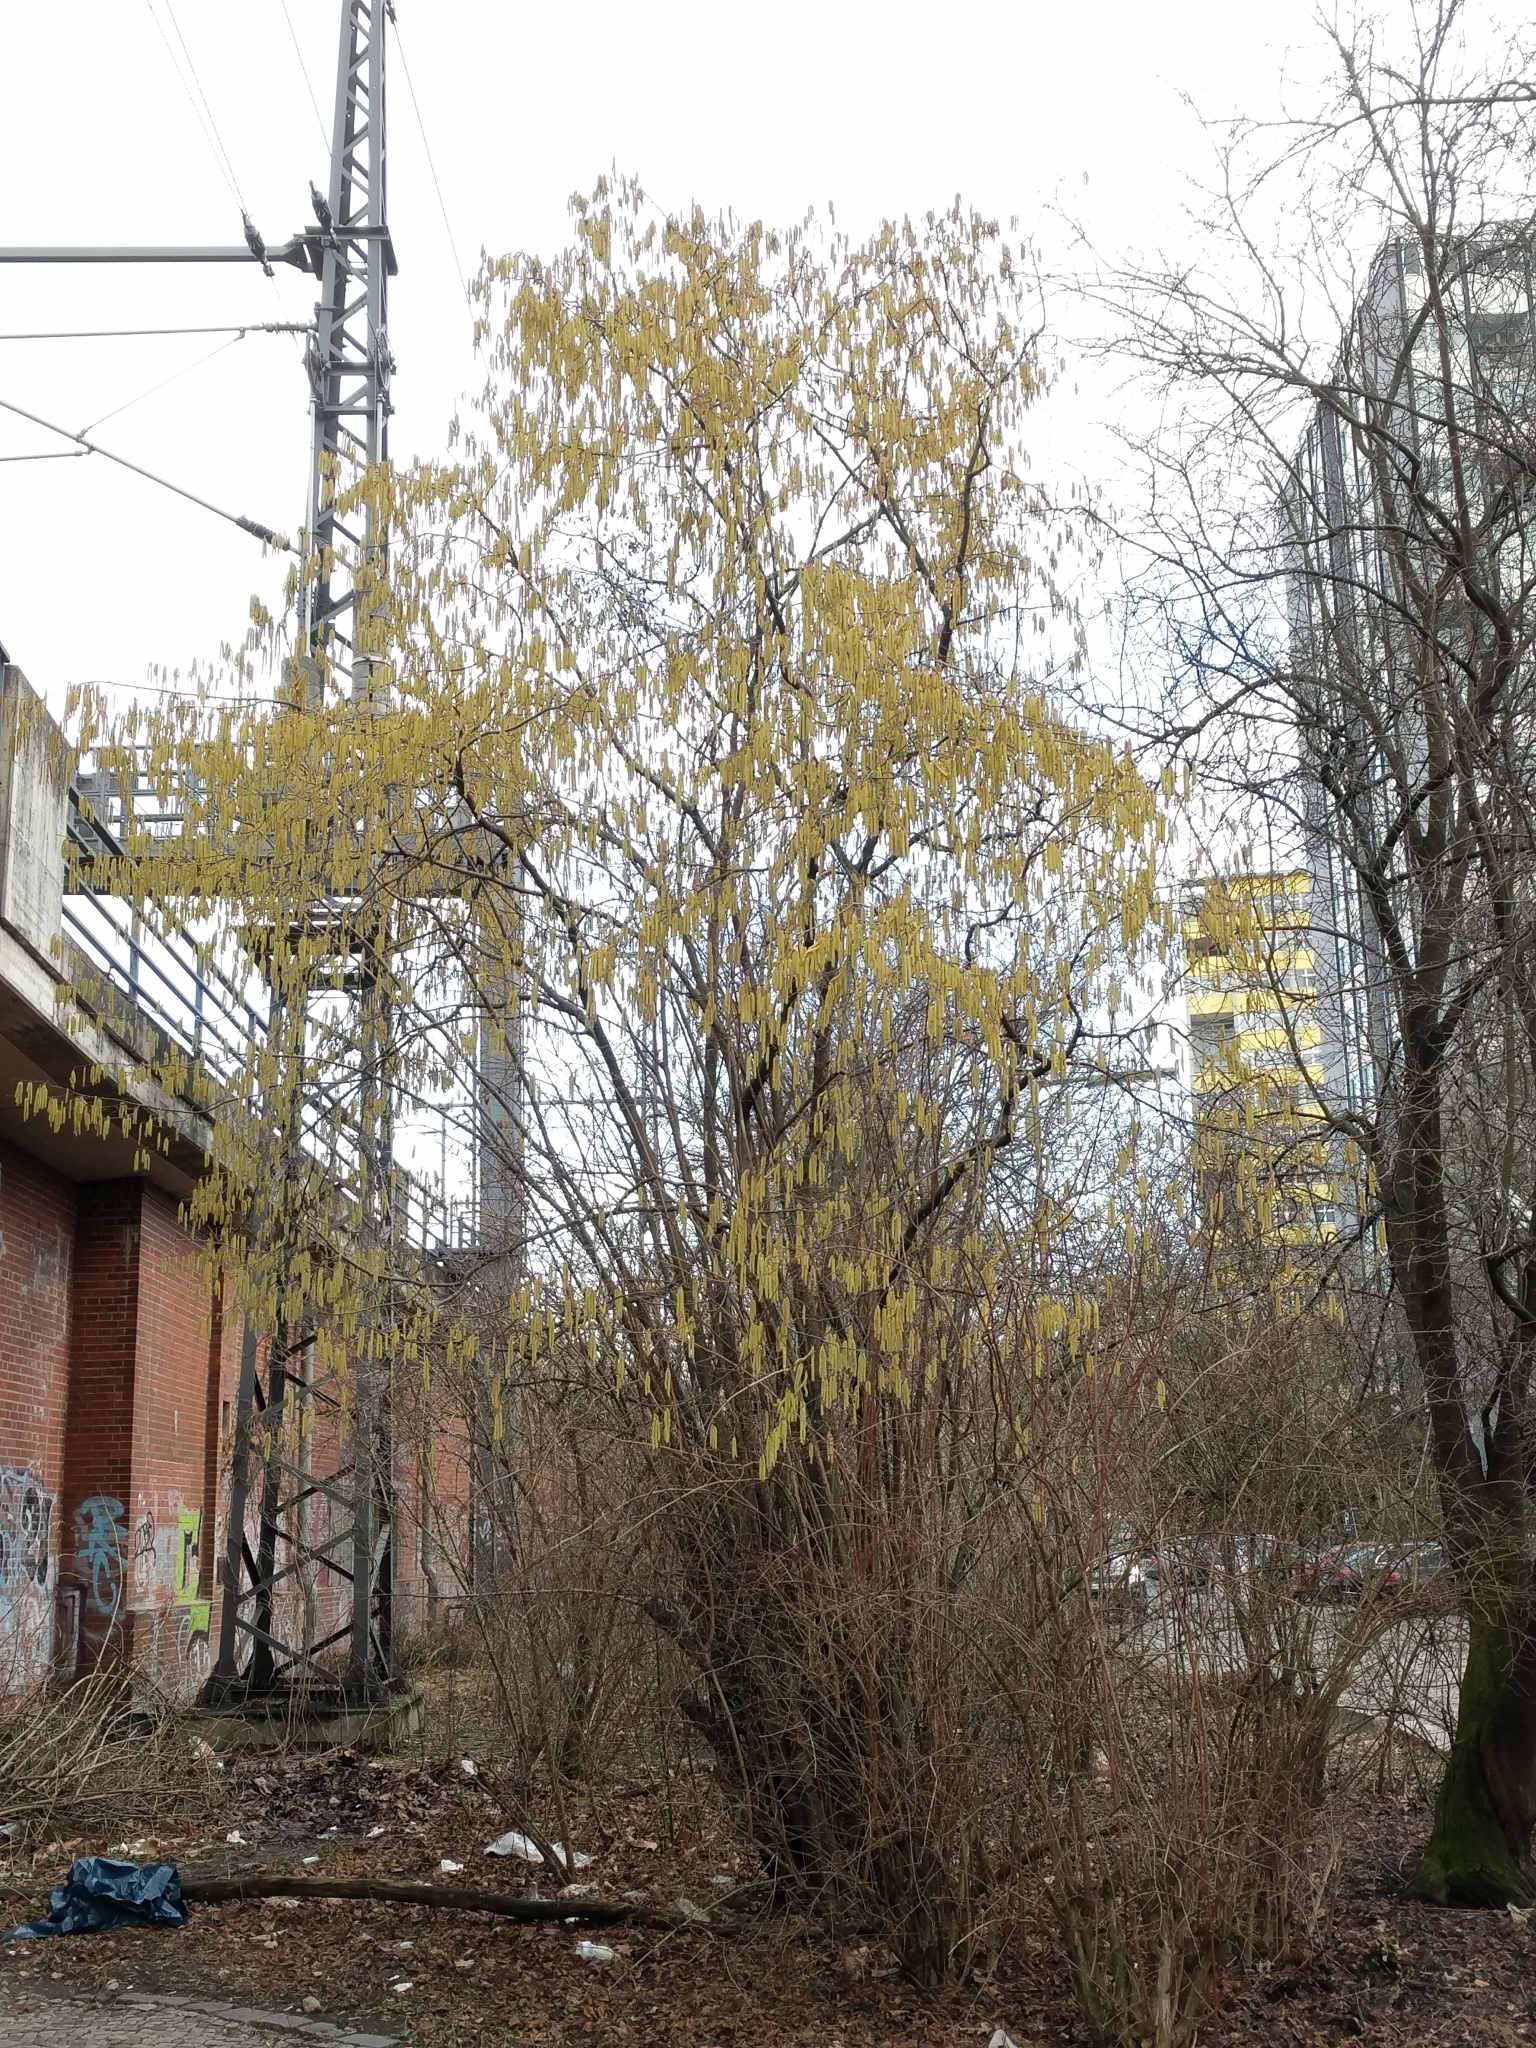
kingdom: Plantae
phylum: Tracheophyta
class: Magnoliopsida
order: Fagales
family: Betulaceae
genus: Corylus
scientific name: Corylus avellana
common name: European hazel
